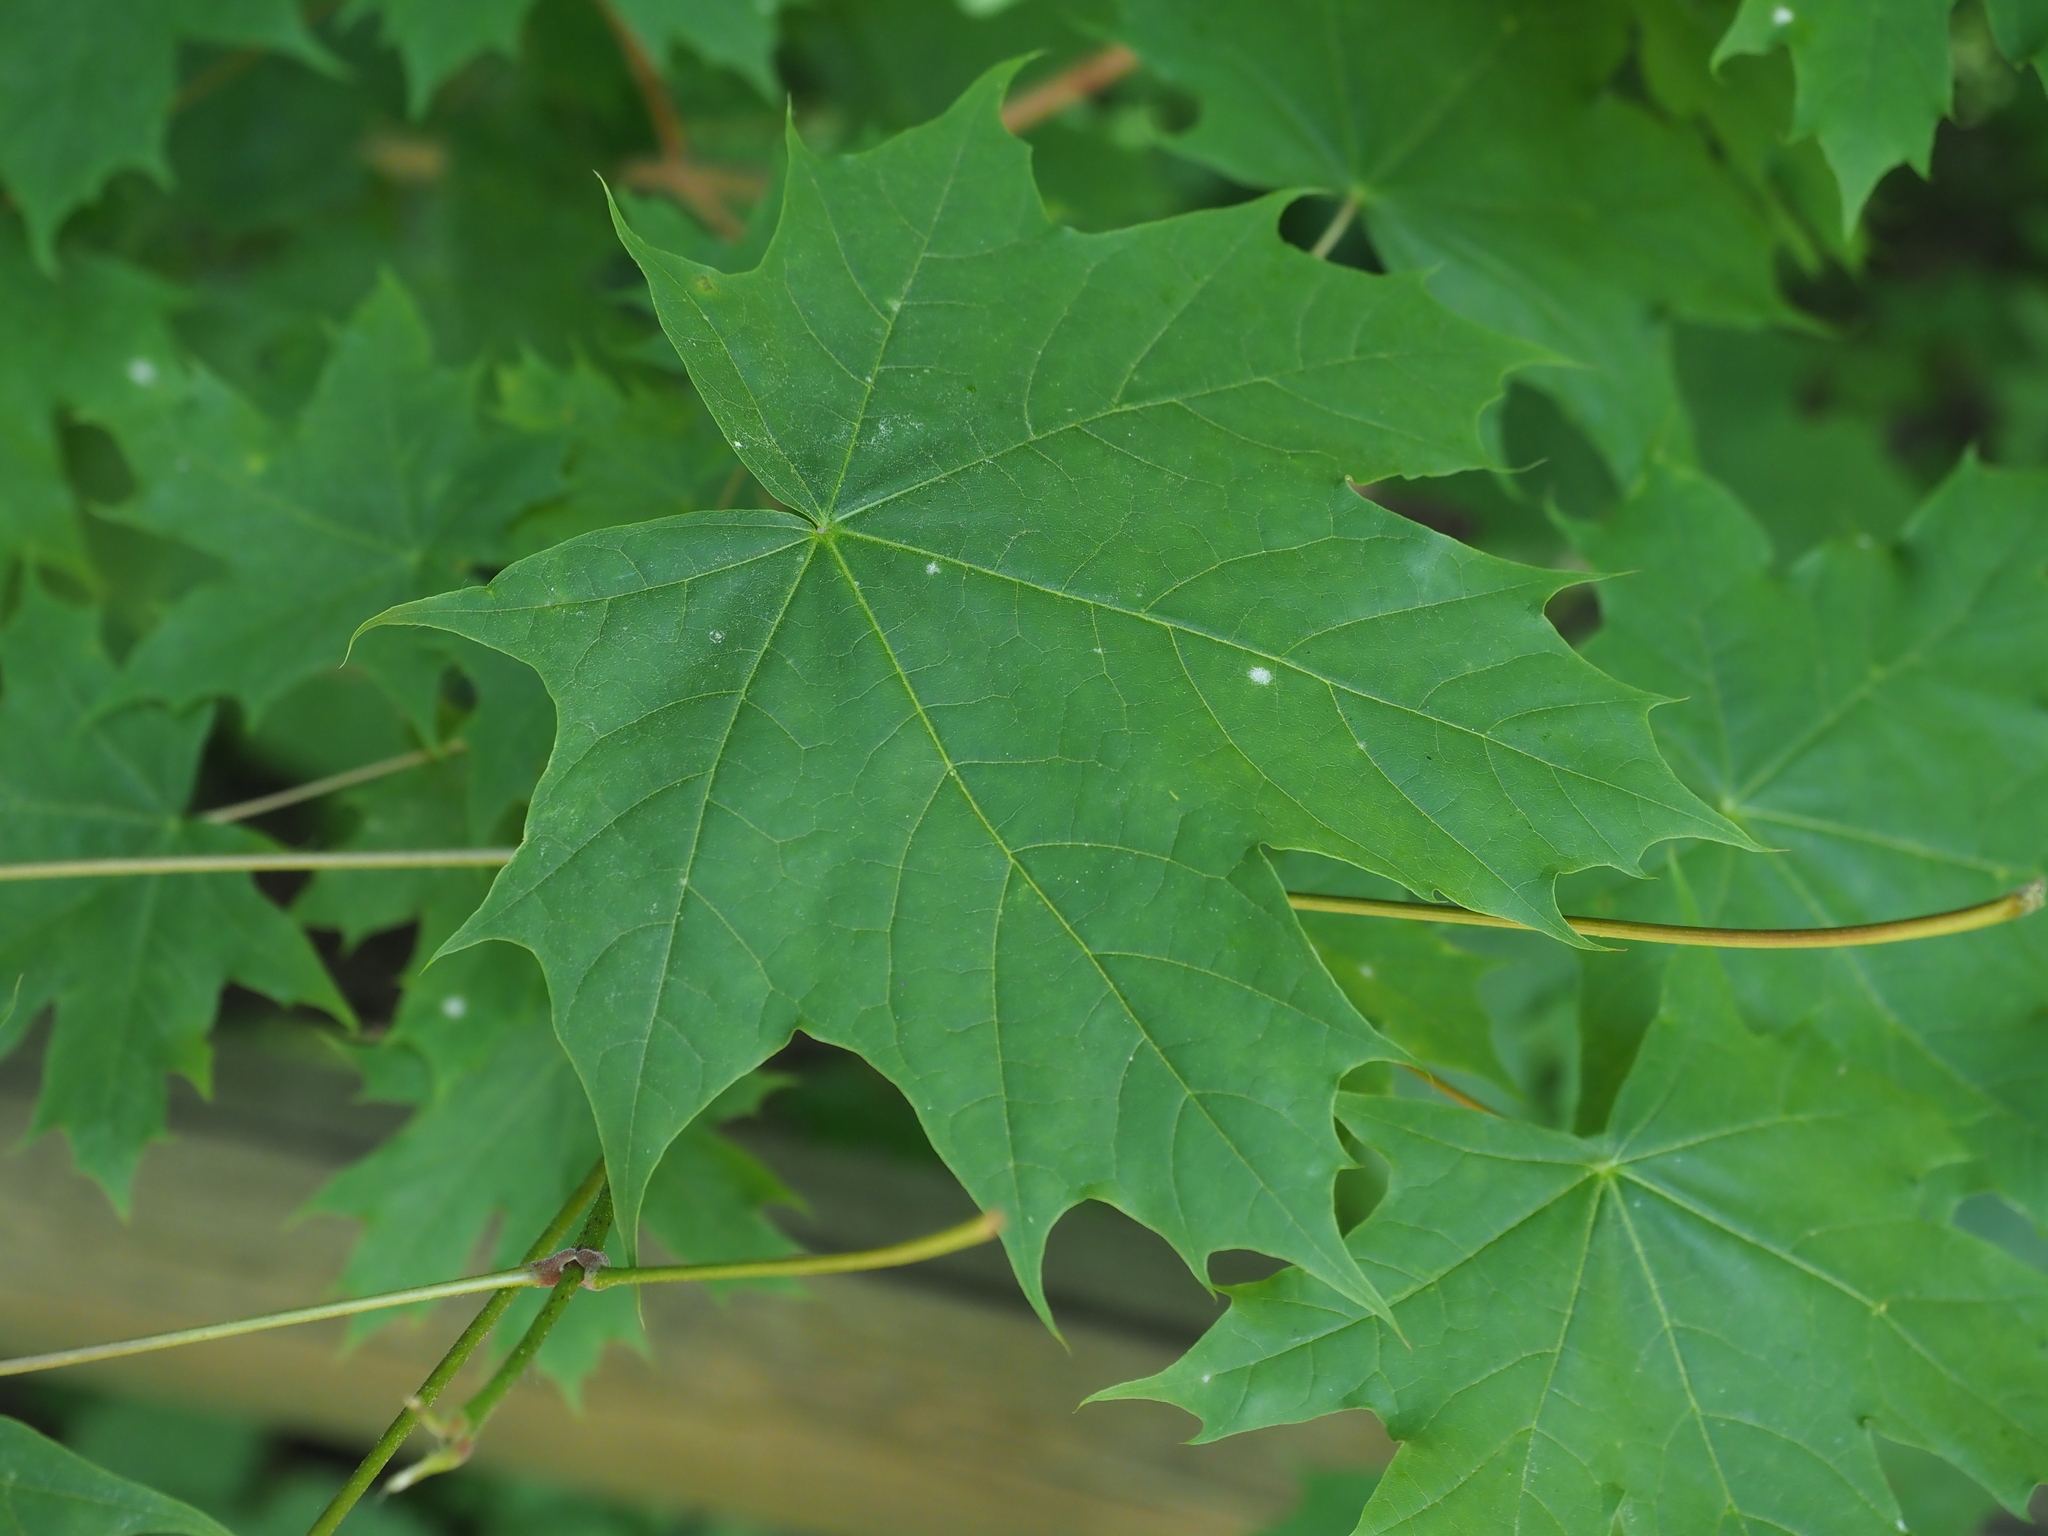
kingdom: Plantae
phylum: Tracheophyta
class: Magnoliopsida
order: Sapindales
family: Sapindaceae
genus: Acer
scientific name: Acer platanoides
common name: Norway maple
